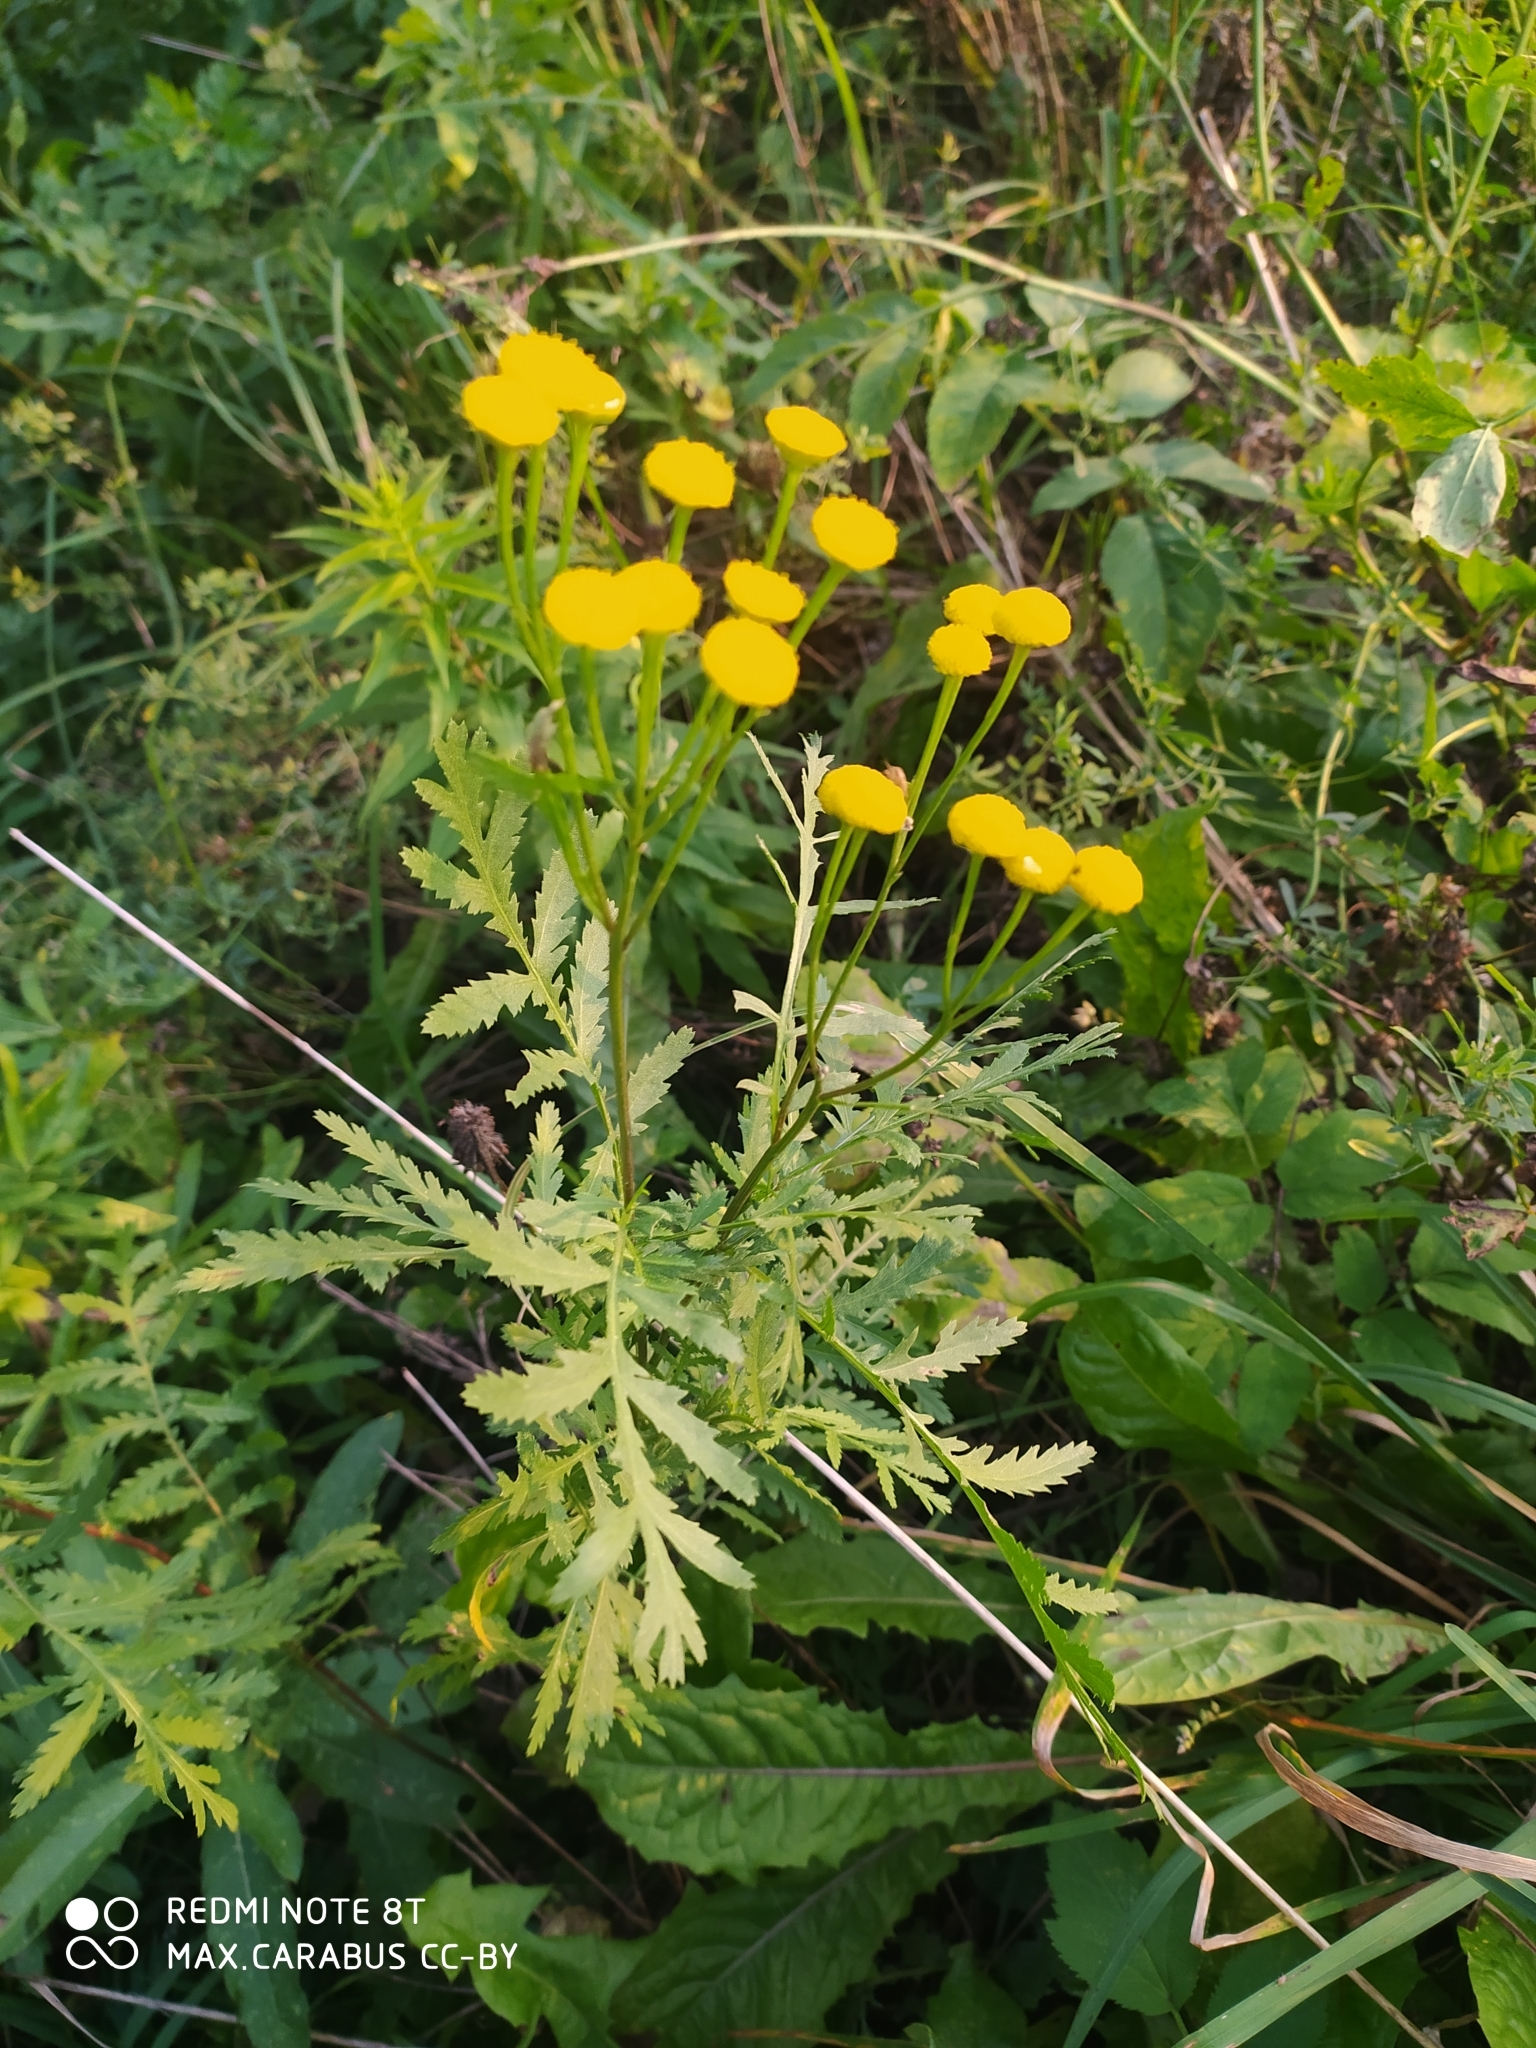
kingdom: Plantae
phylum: Tracheophyta
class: Magnoliopsida
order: Asterales
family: Asteraceae
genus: Tanacetum
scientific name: Tanacetum vulgare
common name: Common tansy
